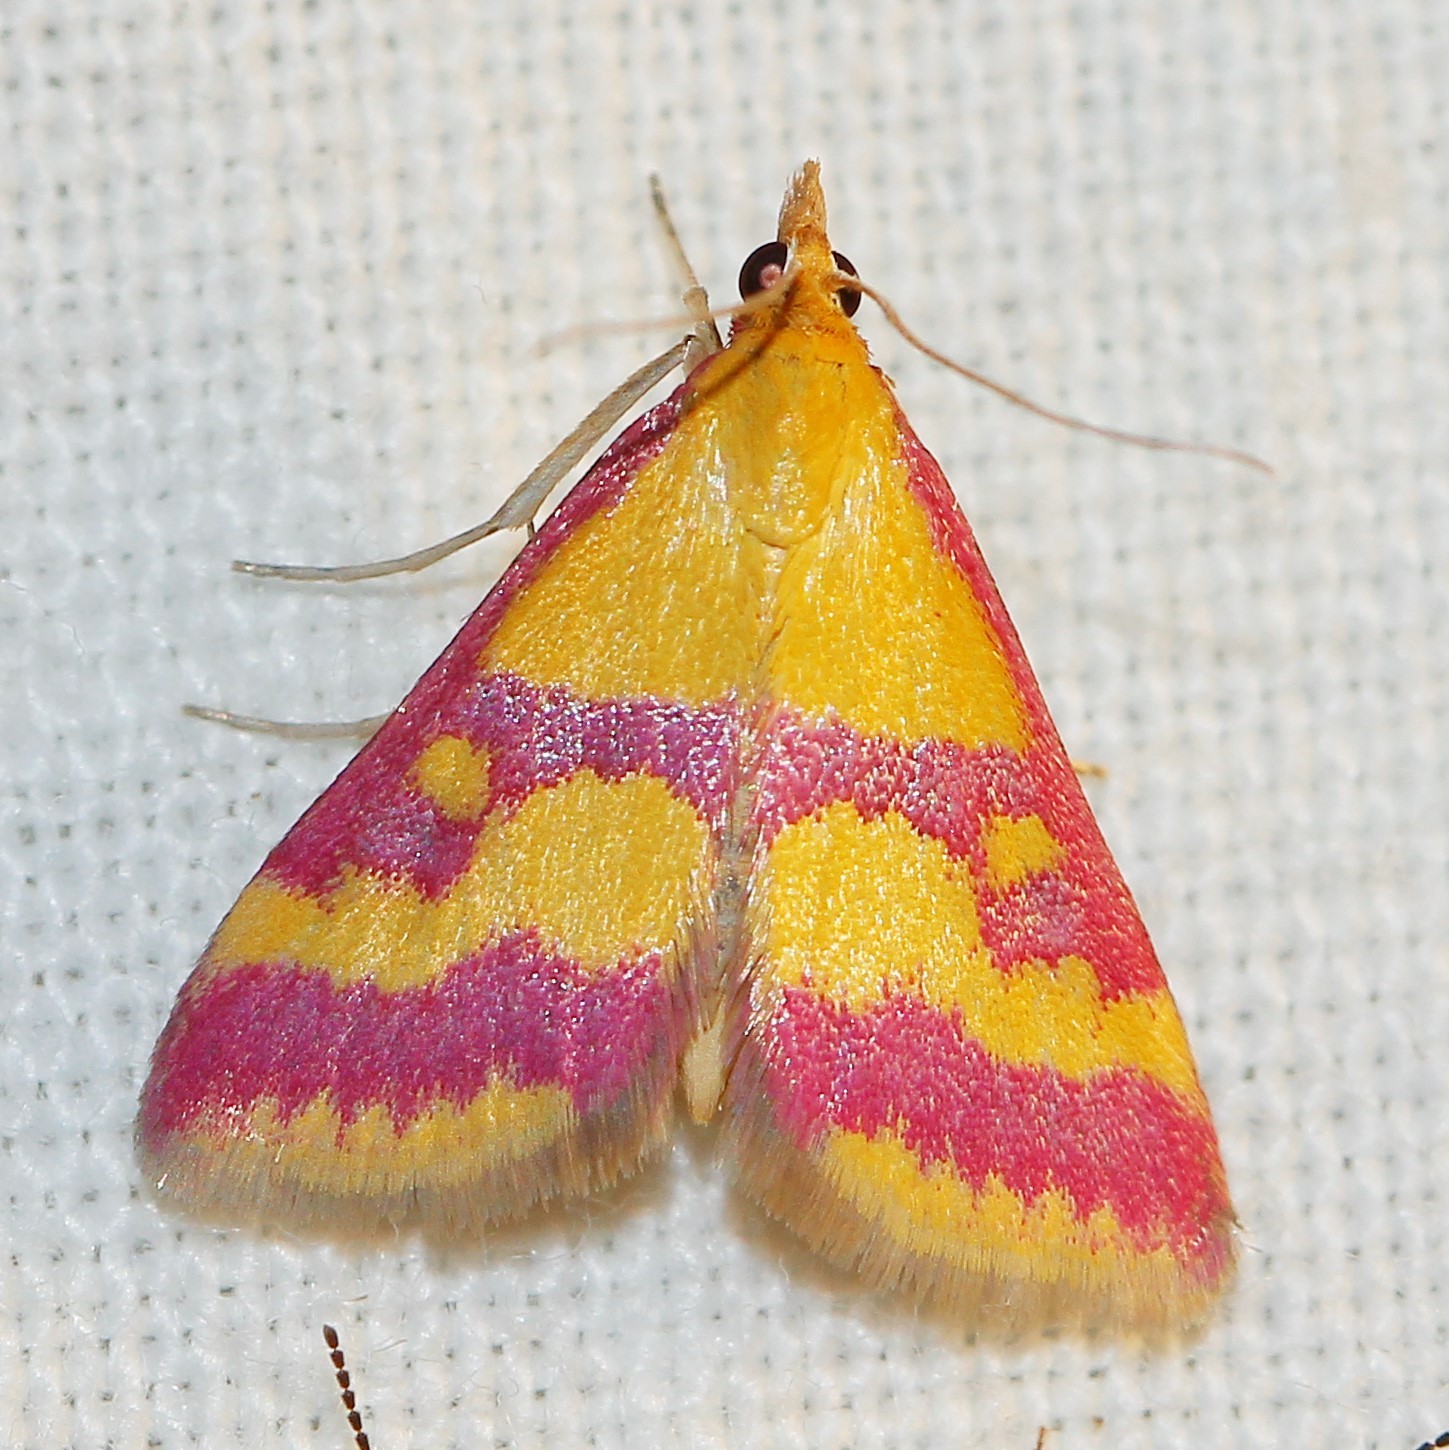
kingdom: Animalia
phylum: Arthropoda
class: Insecta
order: Lepidoptera
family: Crambidae
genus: Pyrausta
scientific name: Pyrausta sanguinalis
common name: Scarce crimson and gold
